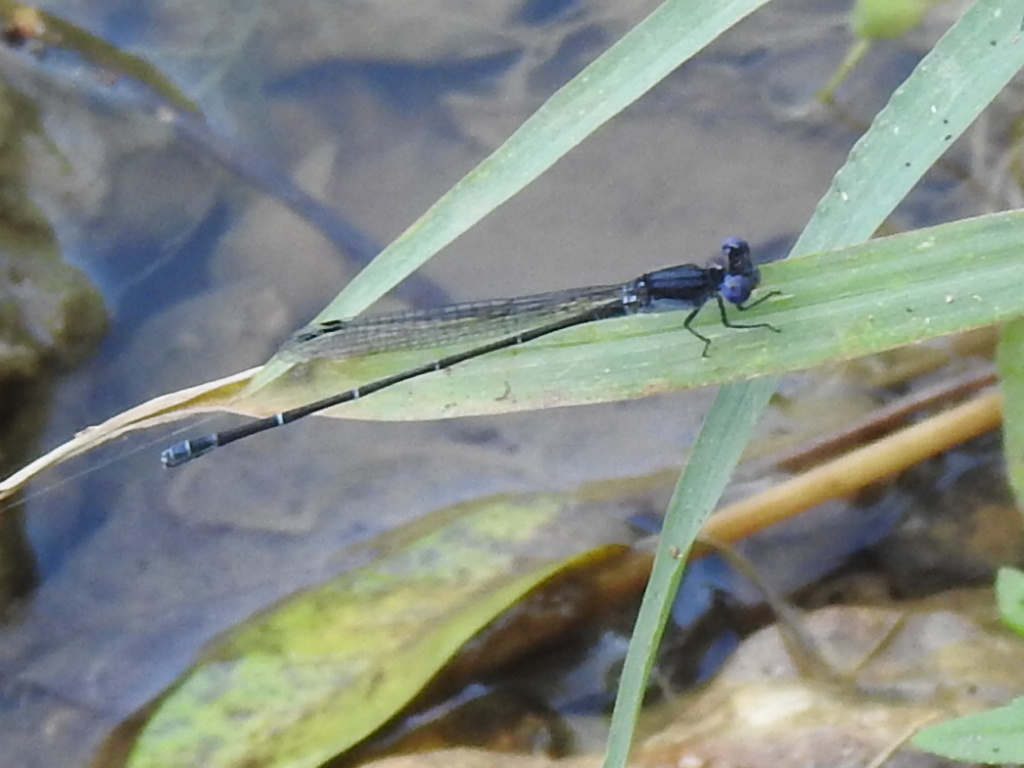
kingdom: Animalia
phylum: Arthropoda
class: Insecta
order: Odonata
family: Coenagrionidae
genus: Argia
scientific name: Argia translata
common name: Dusky dancer
